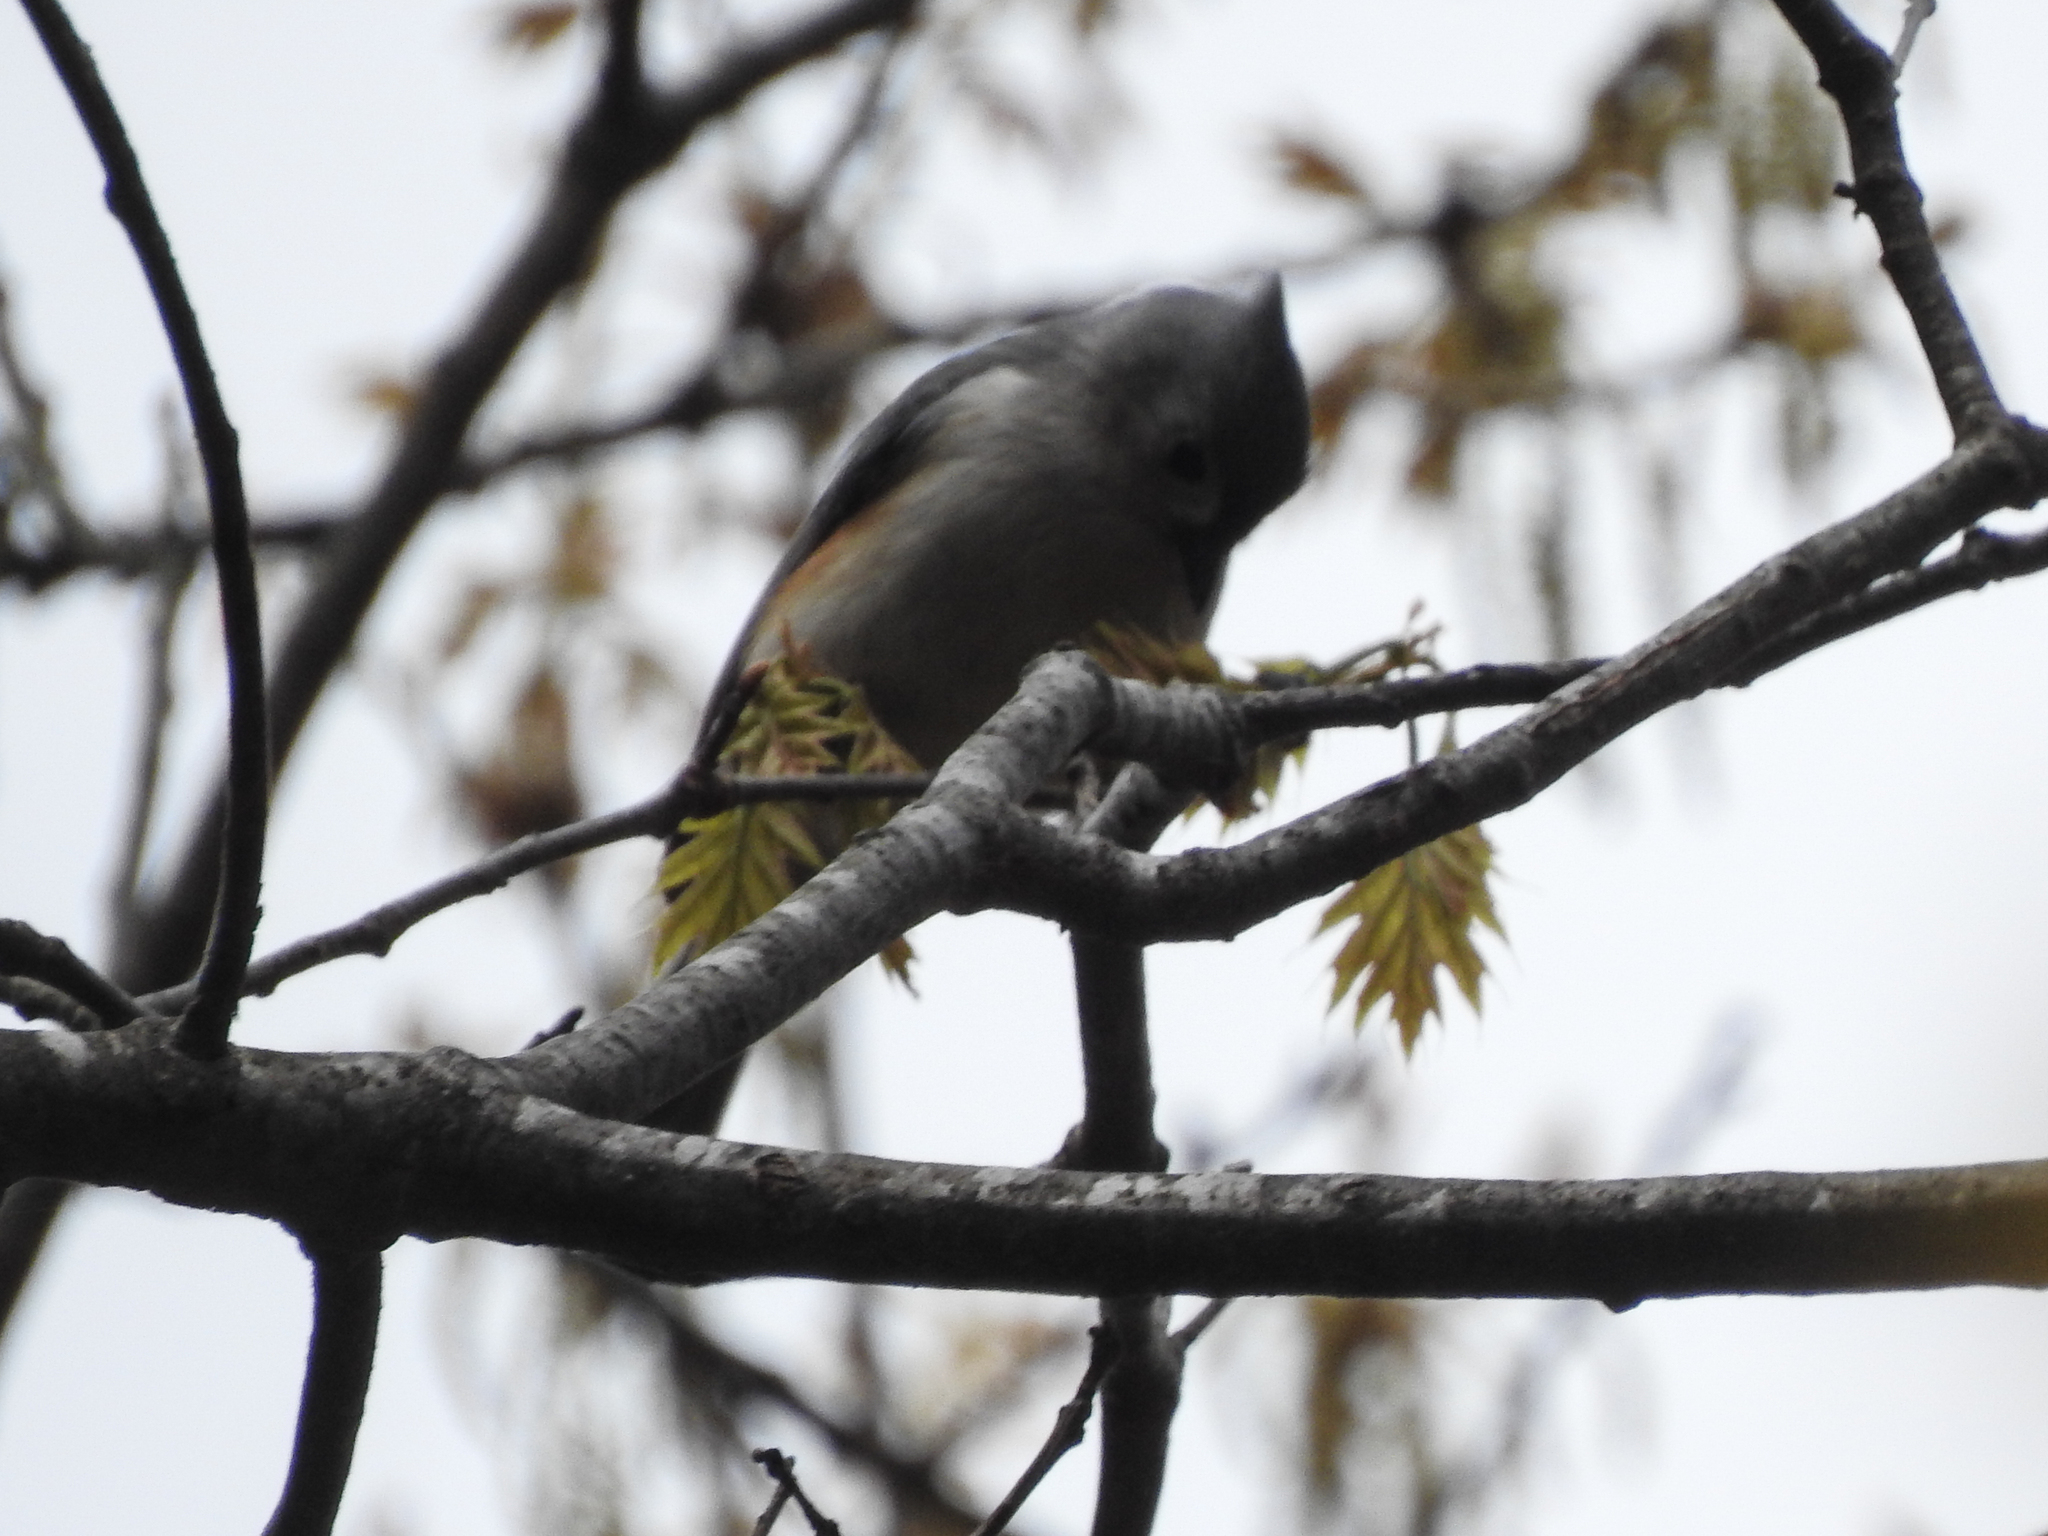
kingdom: Animalia
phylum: Chordata
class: Aves
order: Passeriformes
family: Paridae
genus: Baeolophus
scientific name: Baeolophus bicolor
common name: Tufted titmouse
